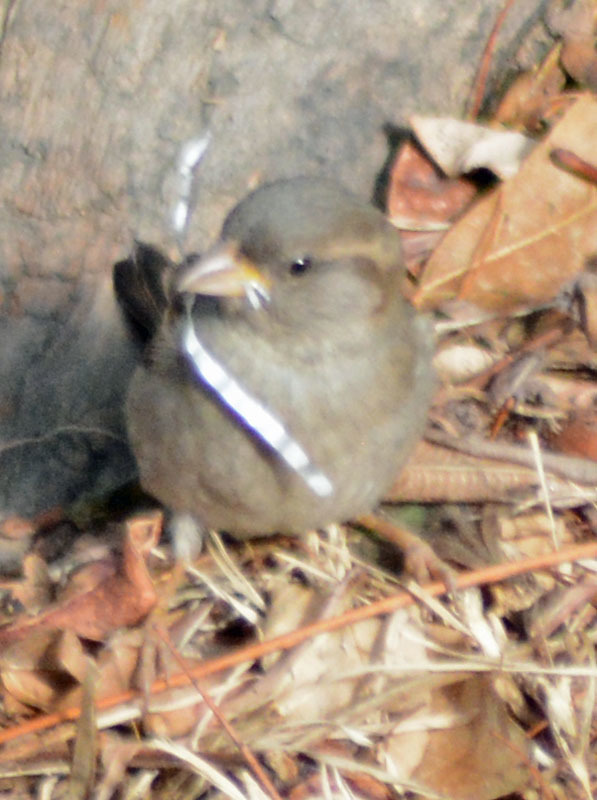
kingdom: Animalia
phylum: Chordata
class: Aves
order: Passeriformes
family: Passeridae
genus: Passer
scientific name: Passer domesticus
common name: House sparrow
